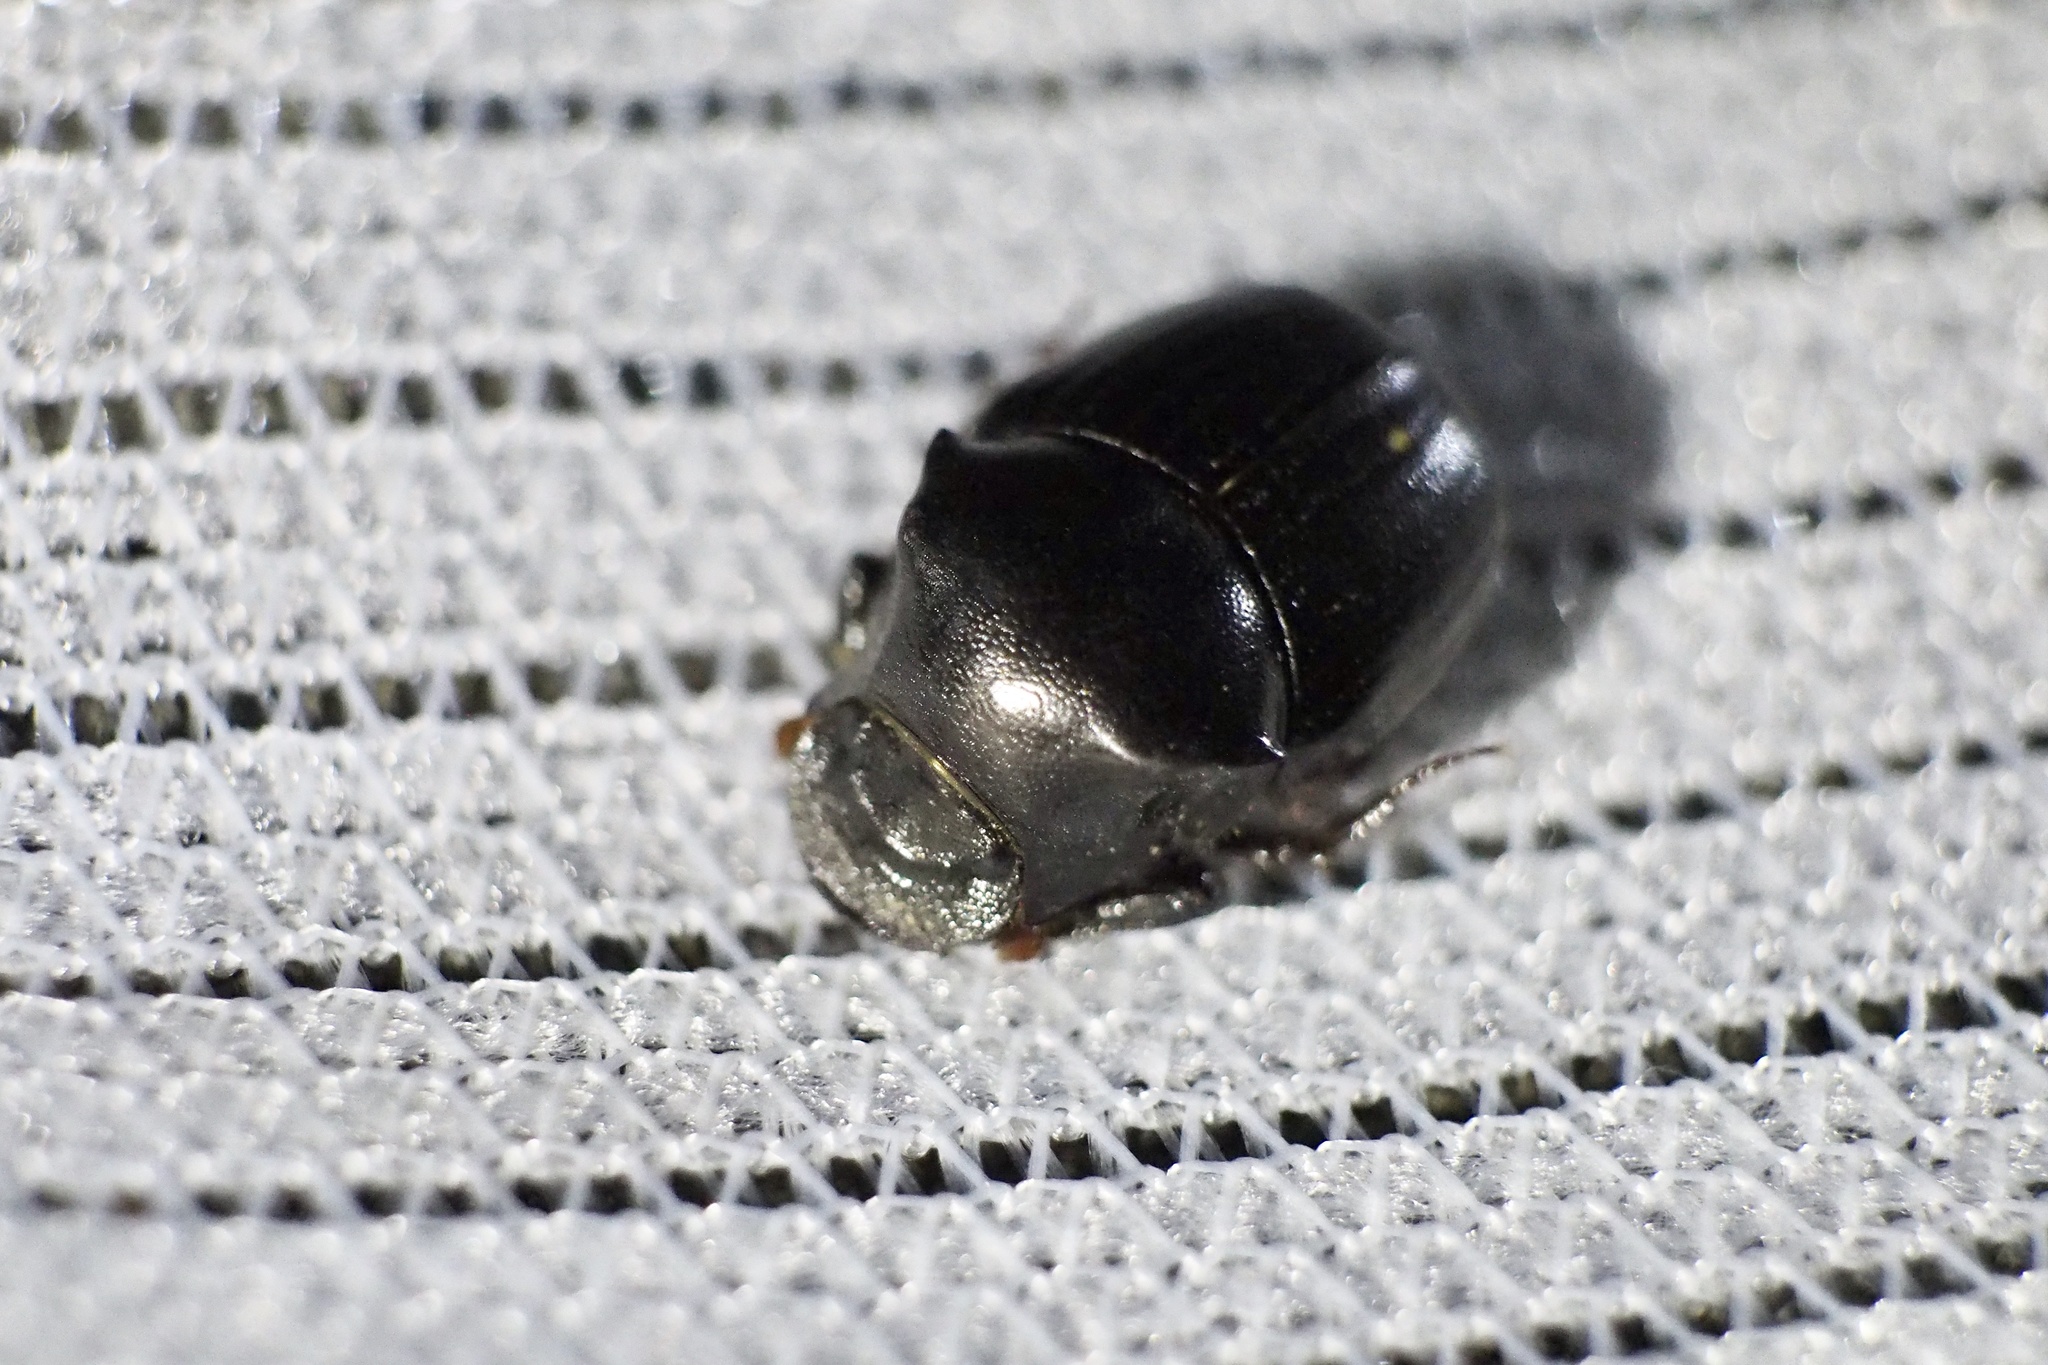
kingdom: Animalia
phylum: Arthropoda
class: Insecta
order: Coleoptera
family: Scarabaeidae
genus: Onthophagus
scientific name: Onthophagus lenzii
